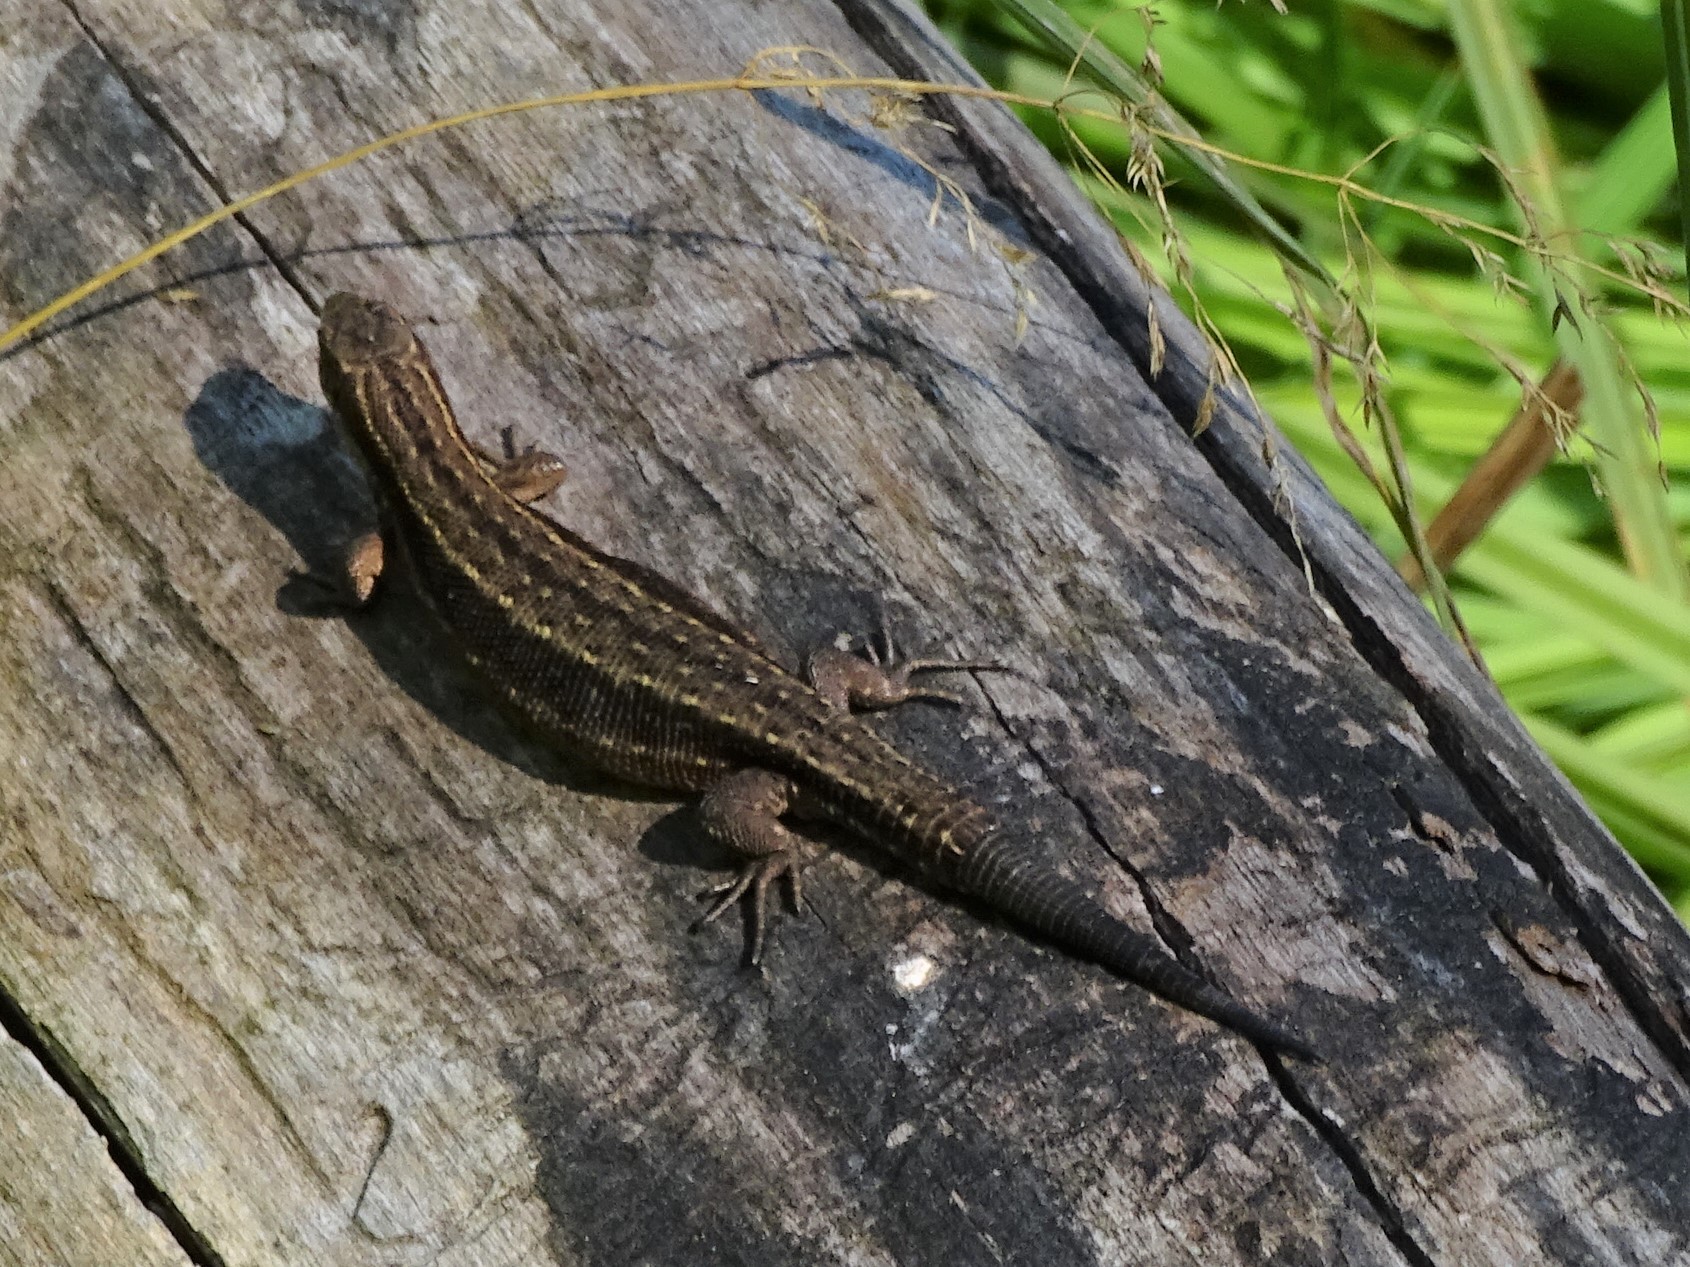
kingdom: Animalia
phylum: Chordata
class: Squamata
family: Lacertidae
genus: Zootoca
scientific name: Zootoca vivipara
